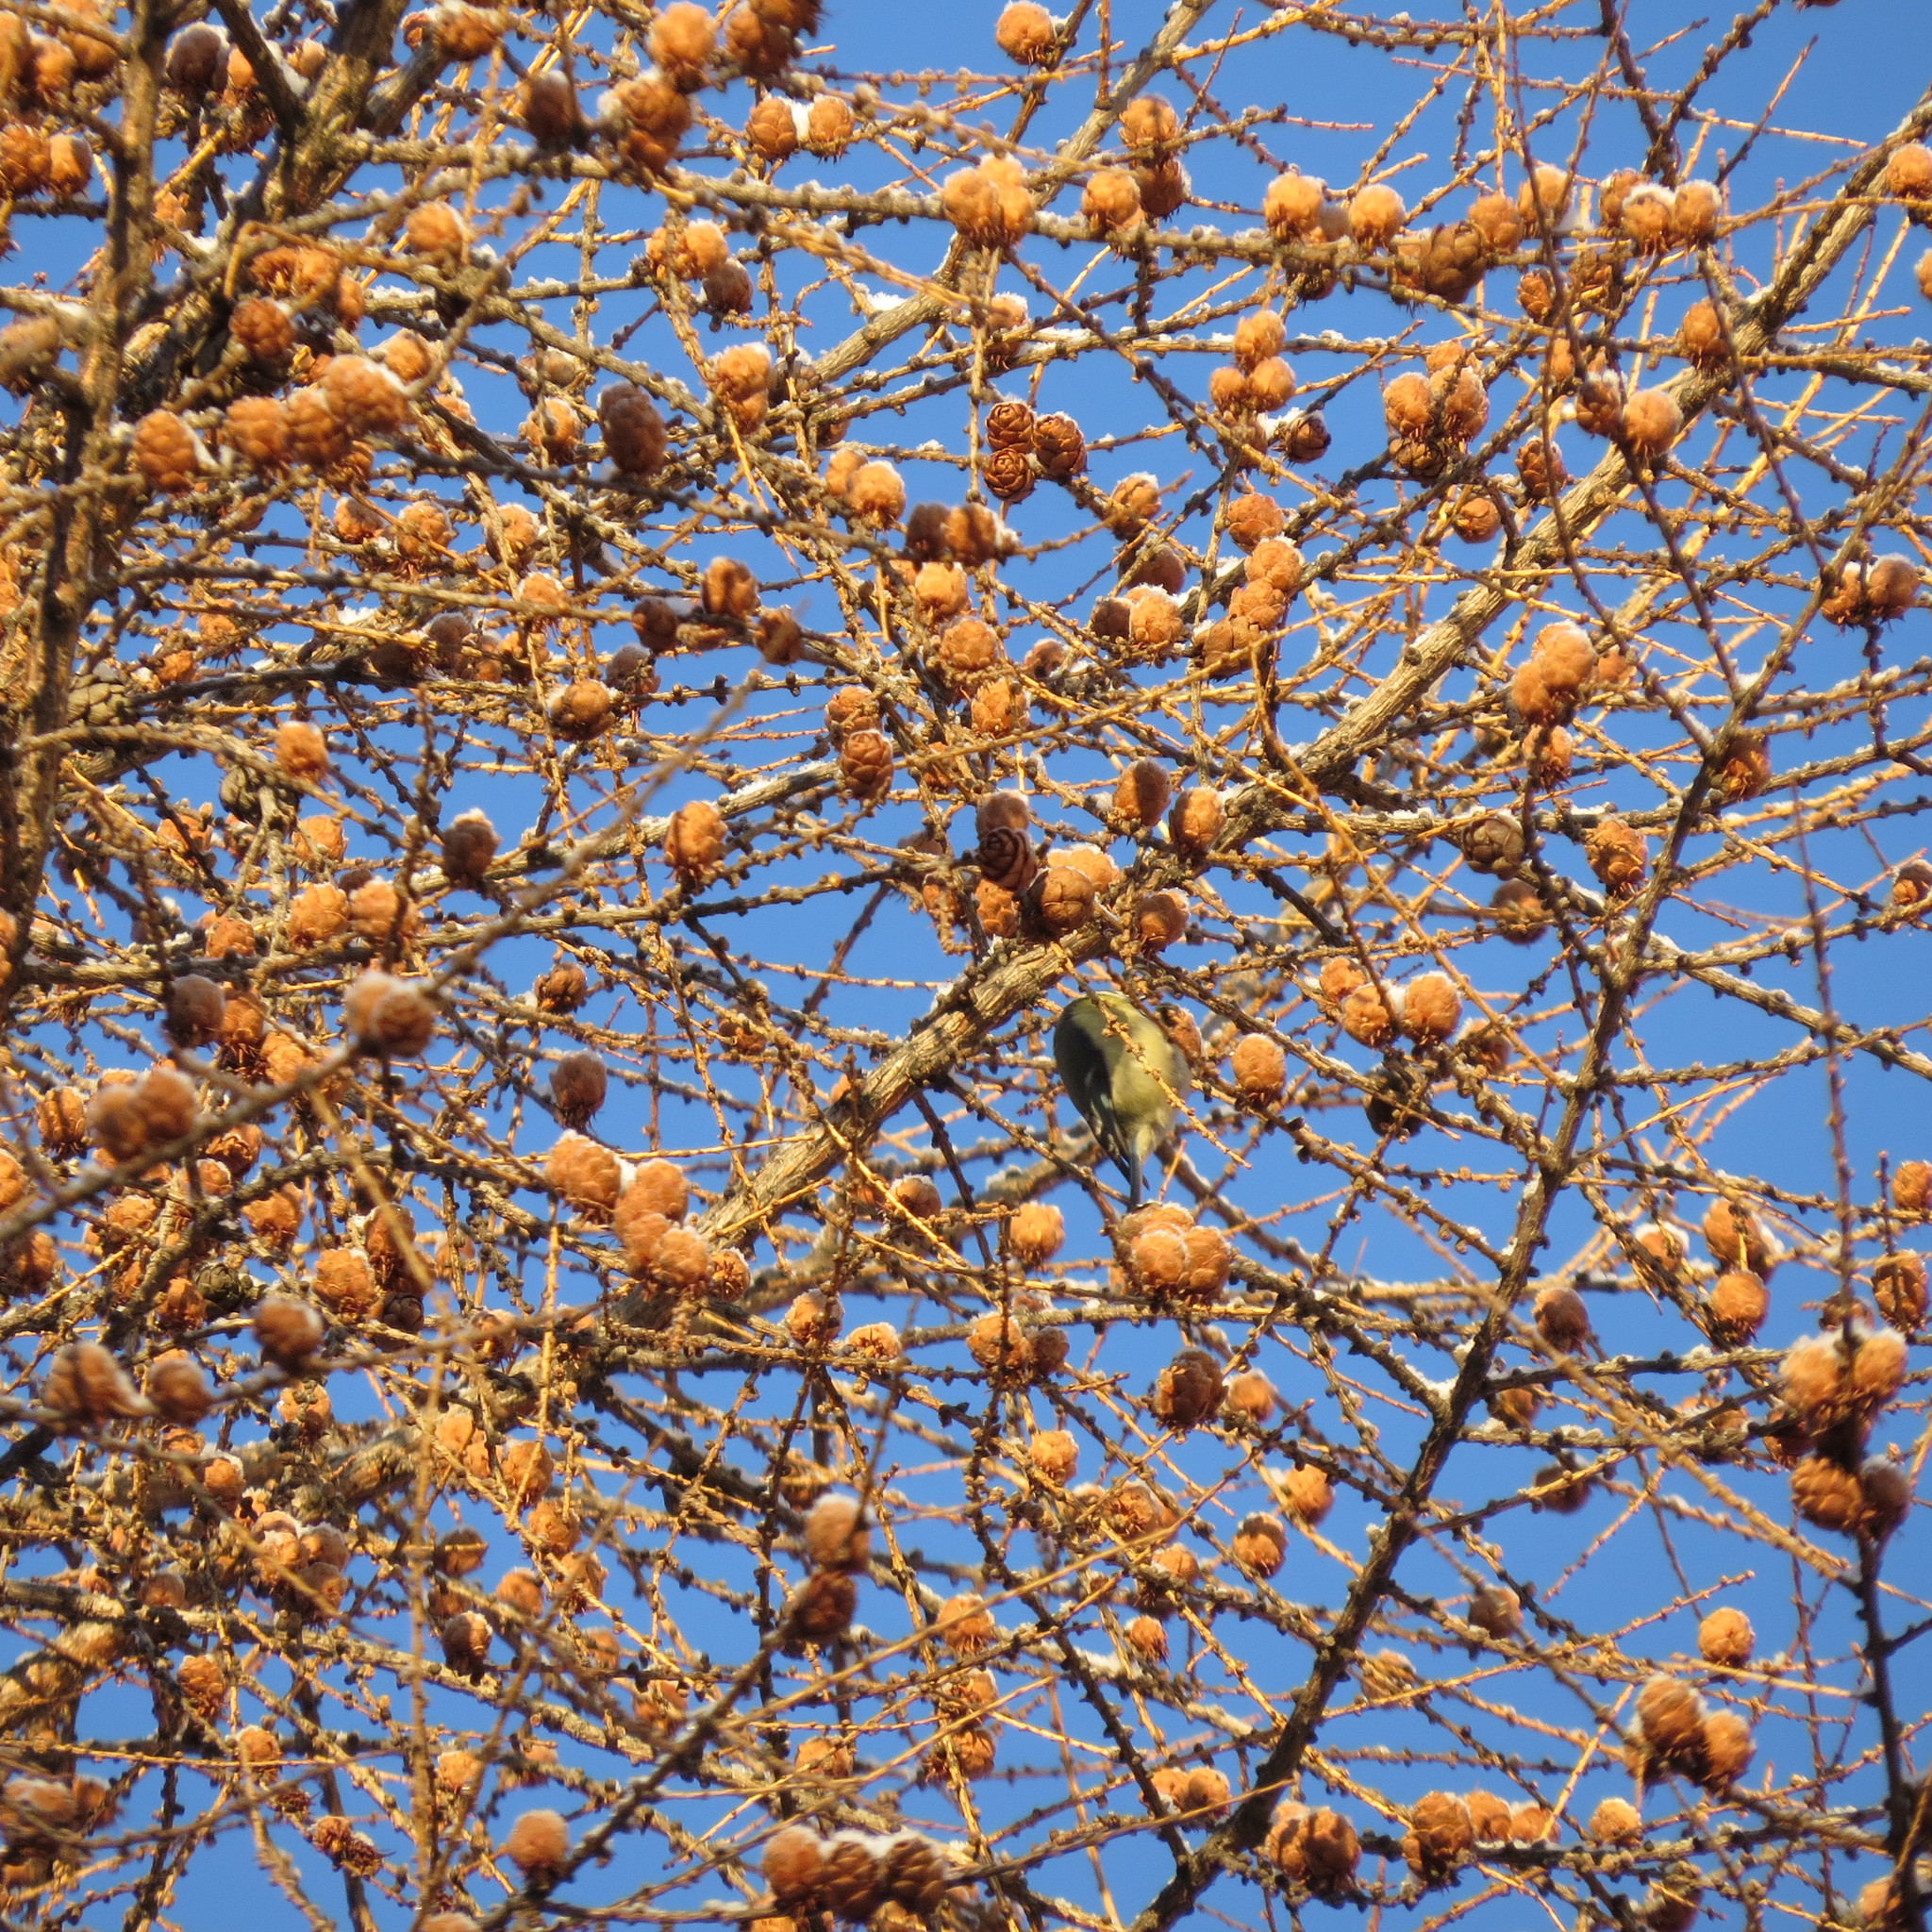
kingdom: Animalia
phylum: Chordata
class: Aves
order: Passeriformes
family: Paridae
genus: Cyanistes
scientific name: Cyanistes caeruleus
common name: Eurasian blue tit
